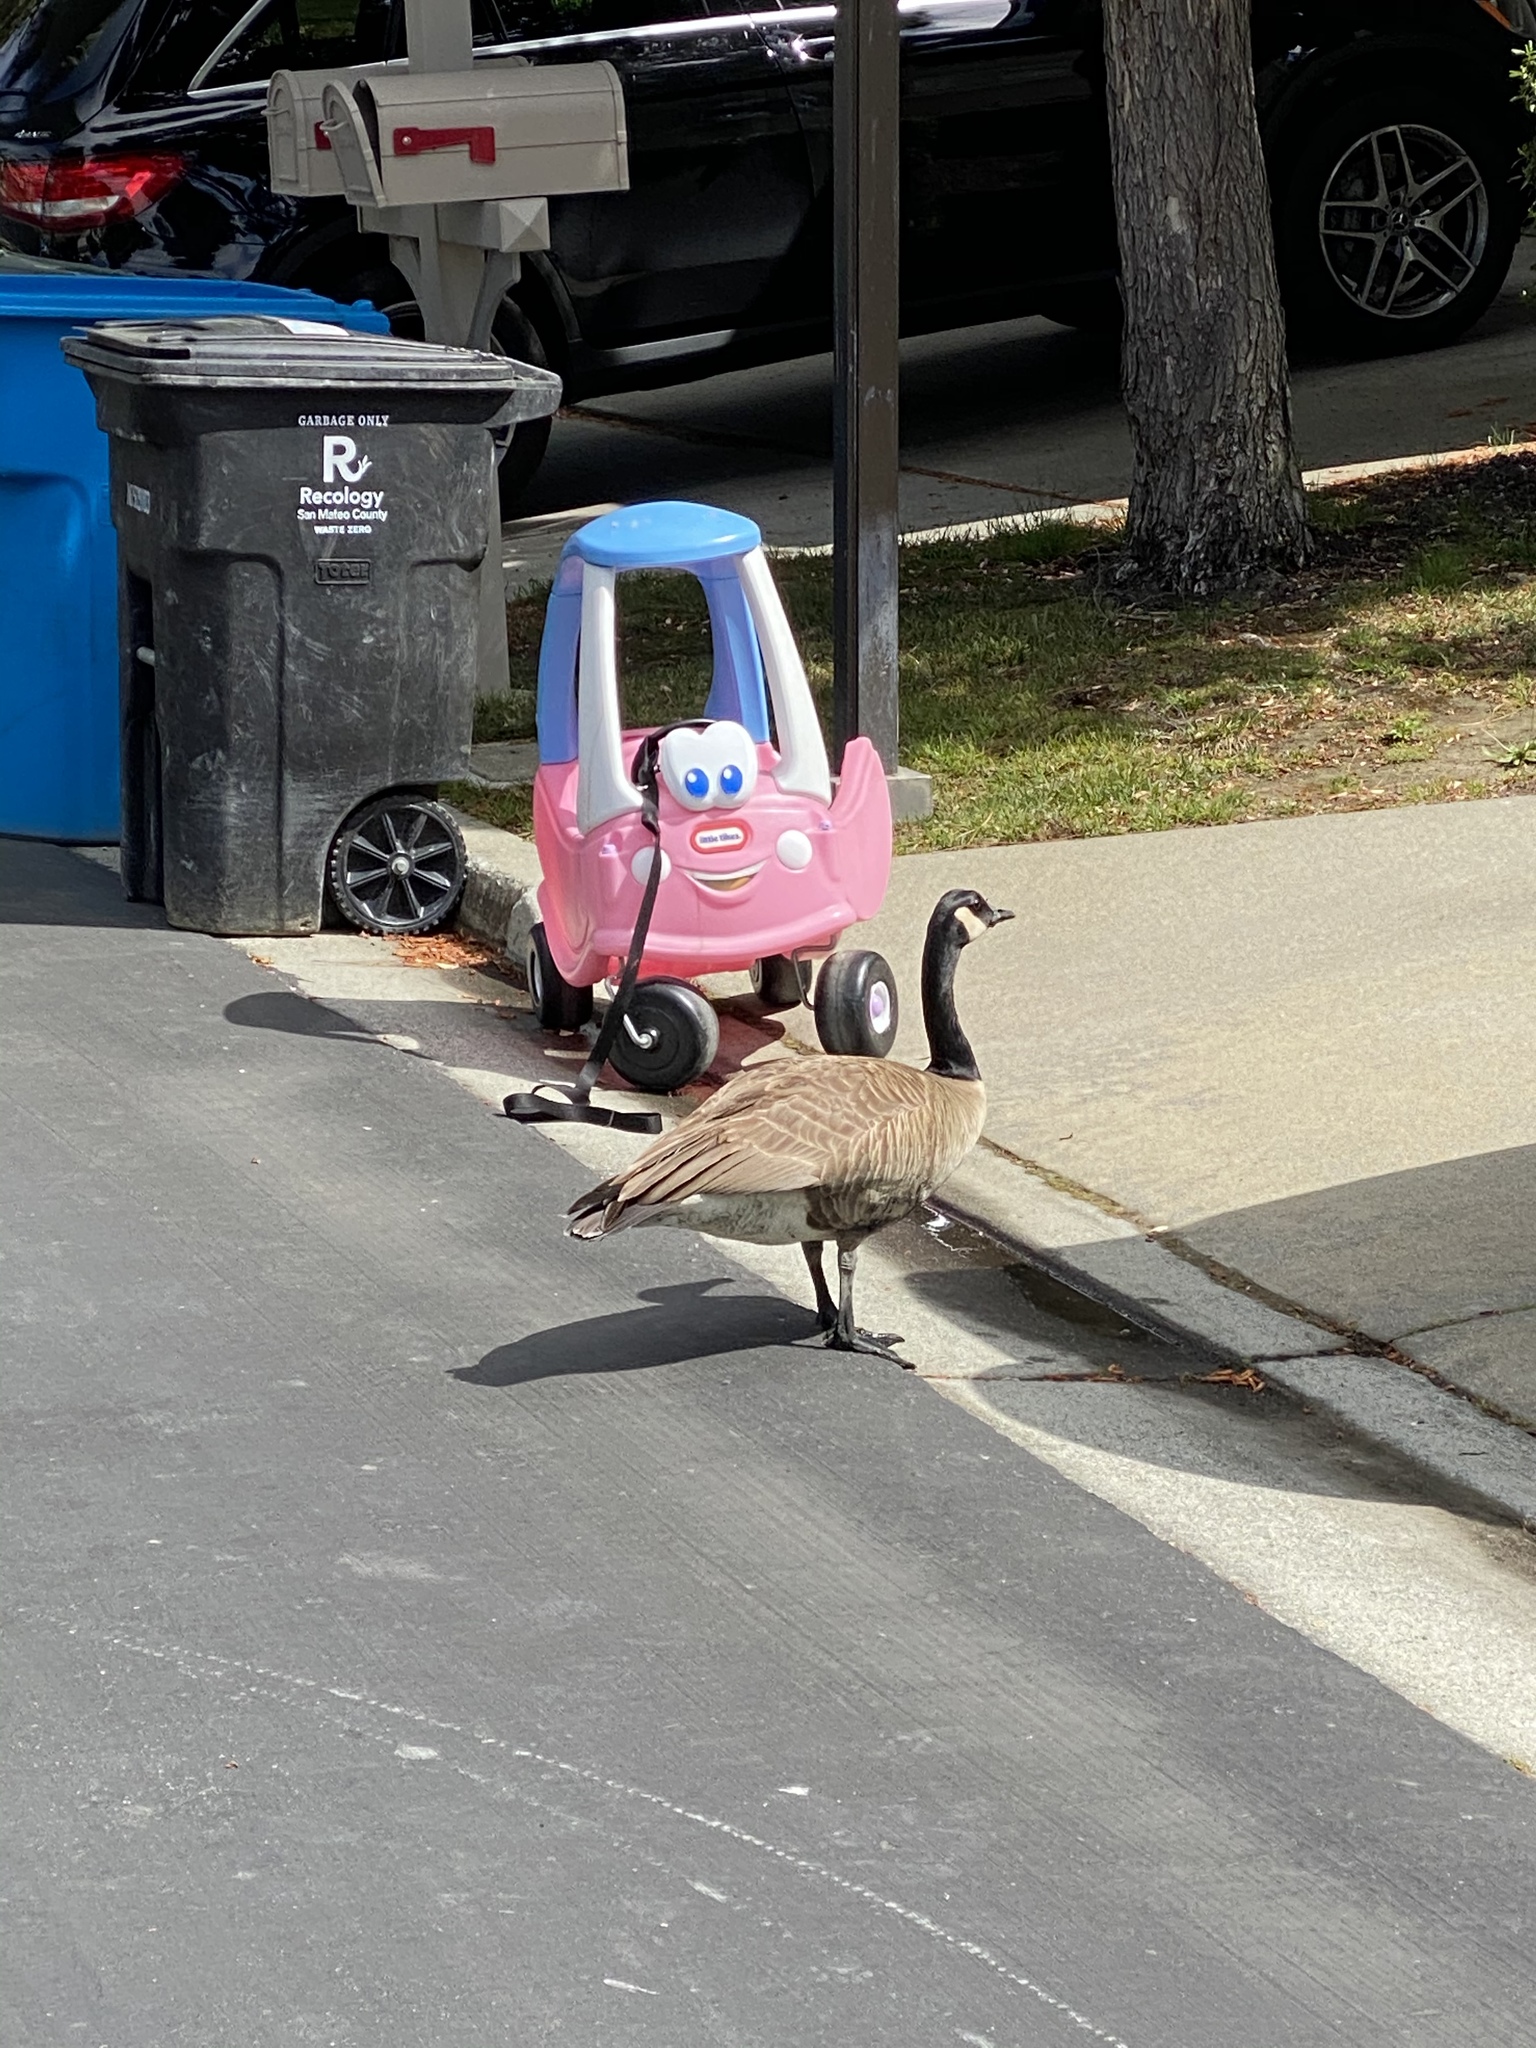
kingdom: Animalia
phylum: Chordata
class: Aves
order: Anseriformes
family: Anatidae
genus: Branta
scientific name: Branta canadensis
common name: Canada goose
